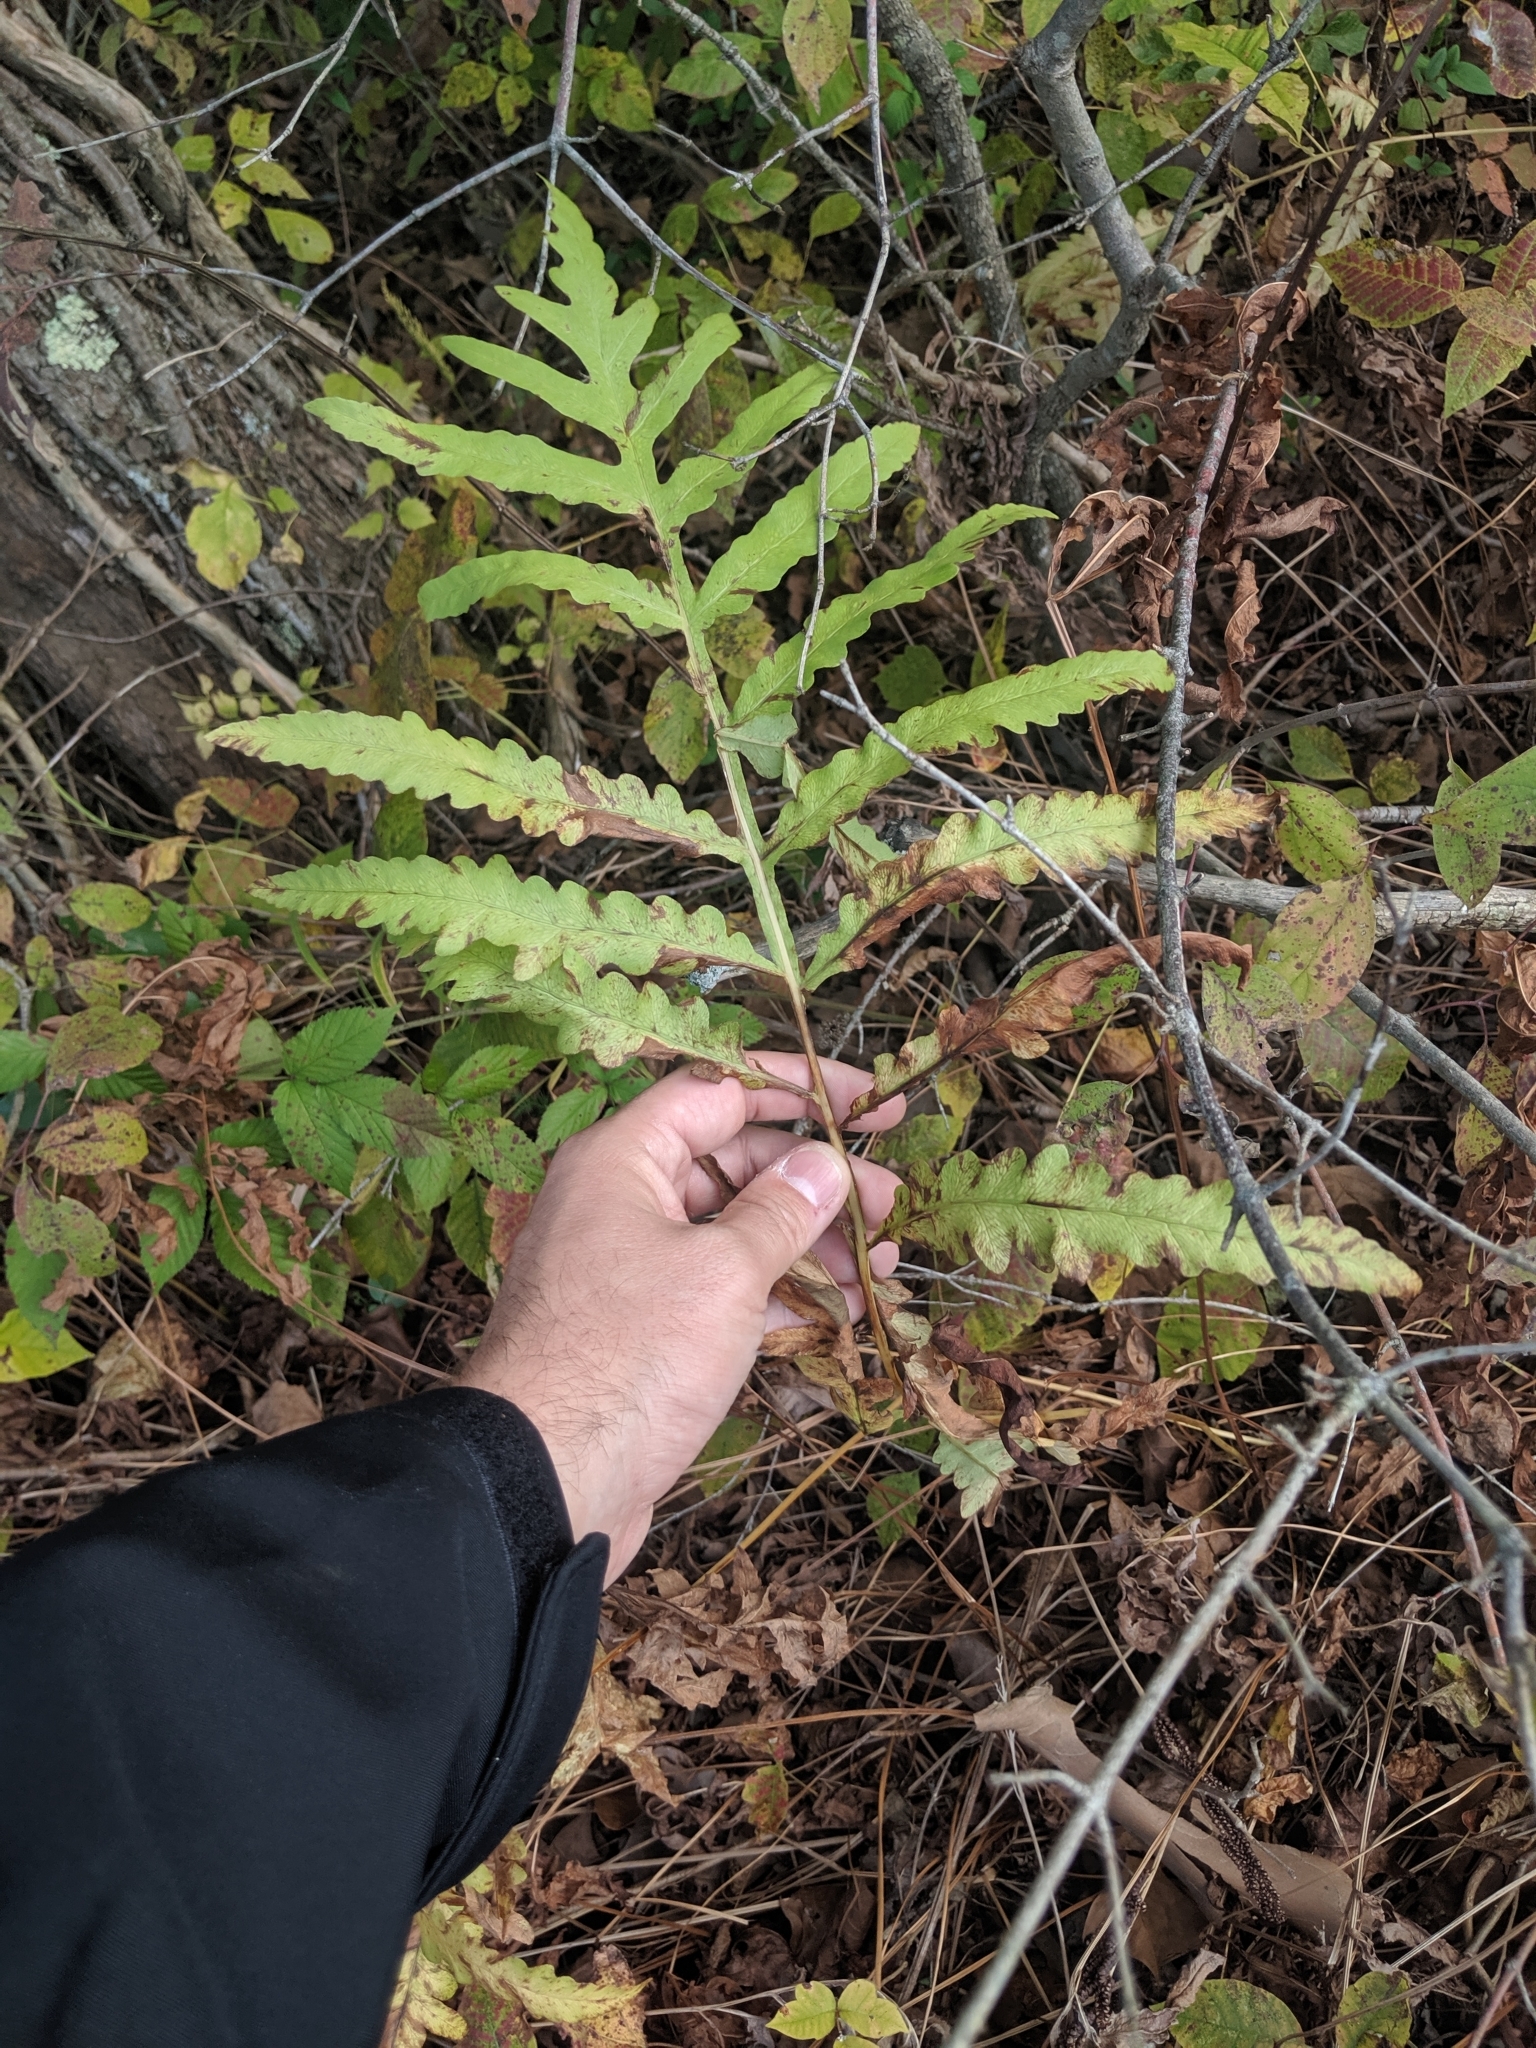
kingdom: Plantae
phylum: Tracheophyta
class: Polypodiopsida
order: Polypodiales
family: Onocleaceae
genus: Onoclea
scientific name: Onoclea sensibilis
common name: Sensitive fern
